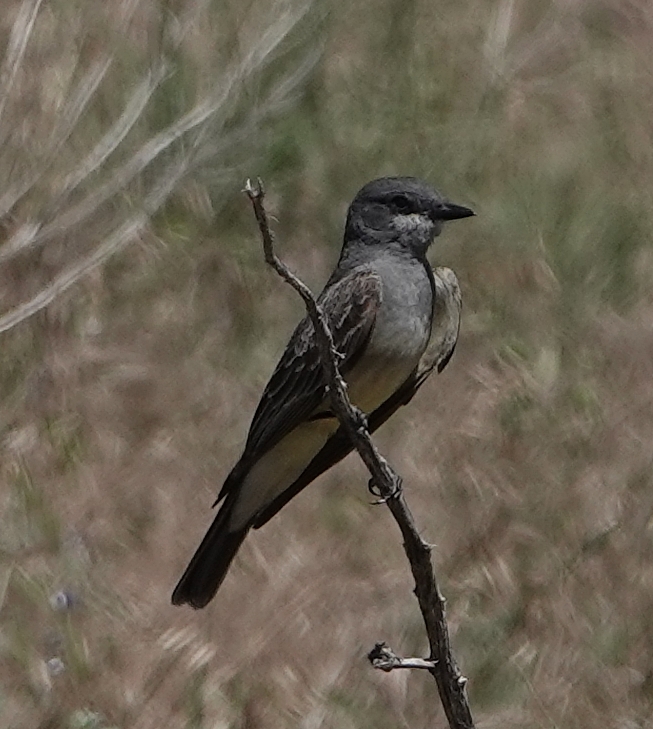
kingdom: Animalia
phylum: Chordata
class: Aves
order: Passeriformes
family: Tyrannidae
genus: Tyrannus
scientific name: Tyrannus vociferans
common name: Cassin's kingbird
